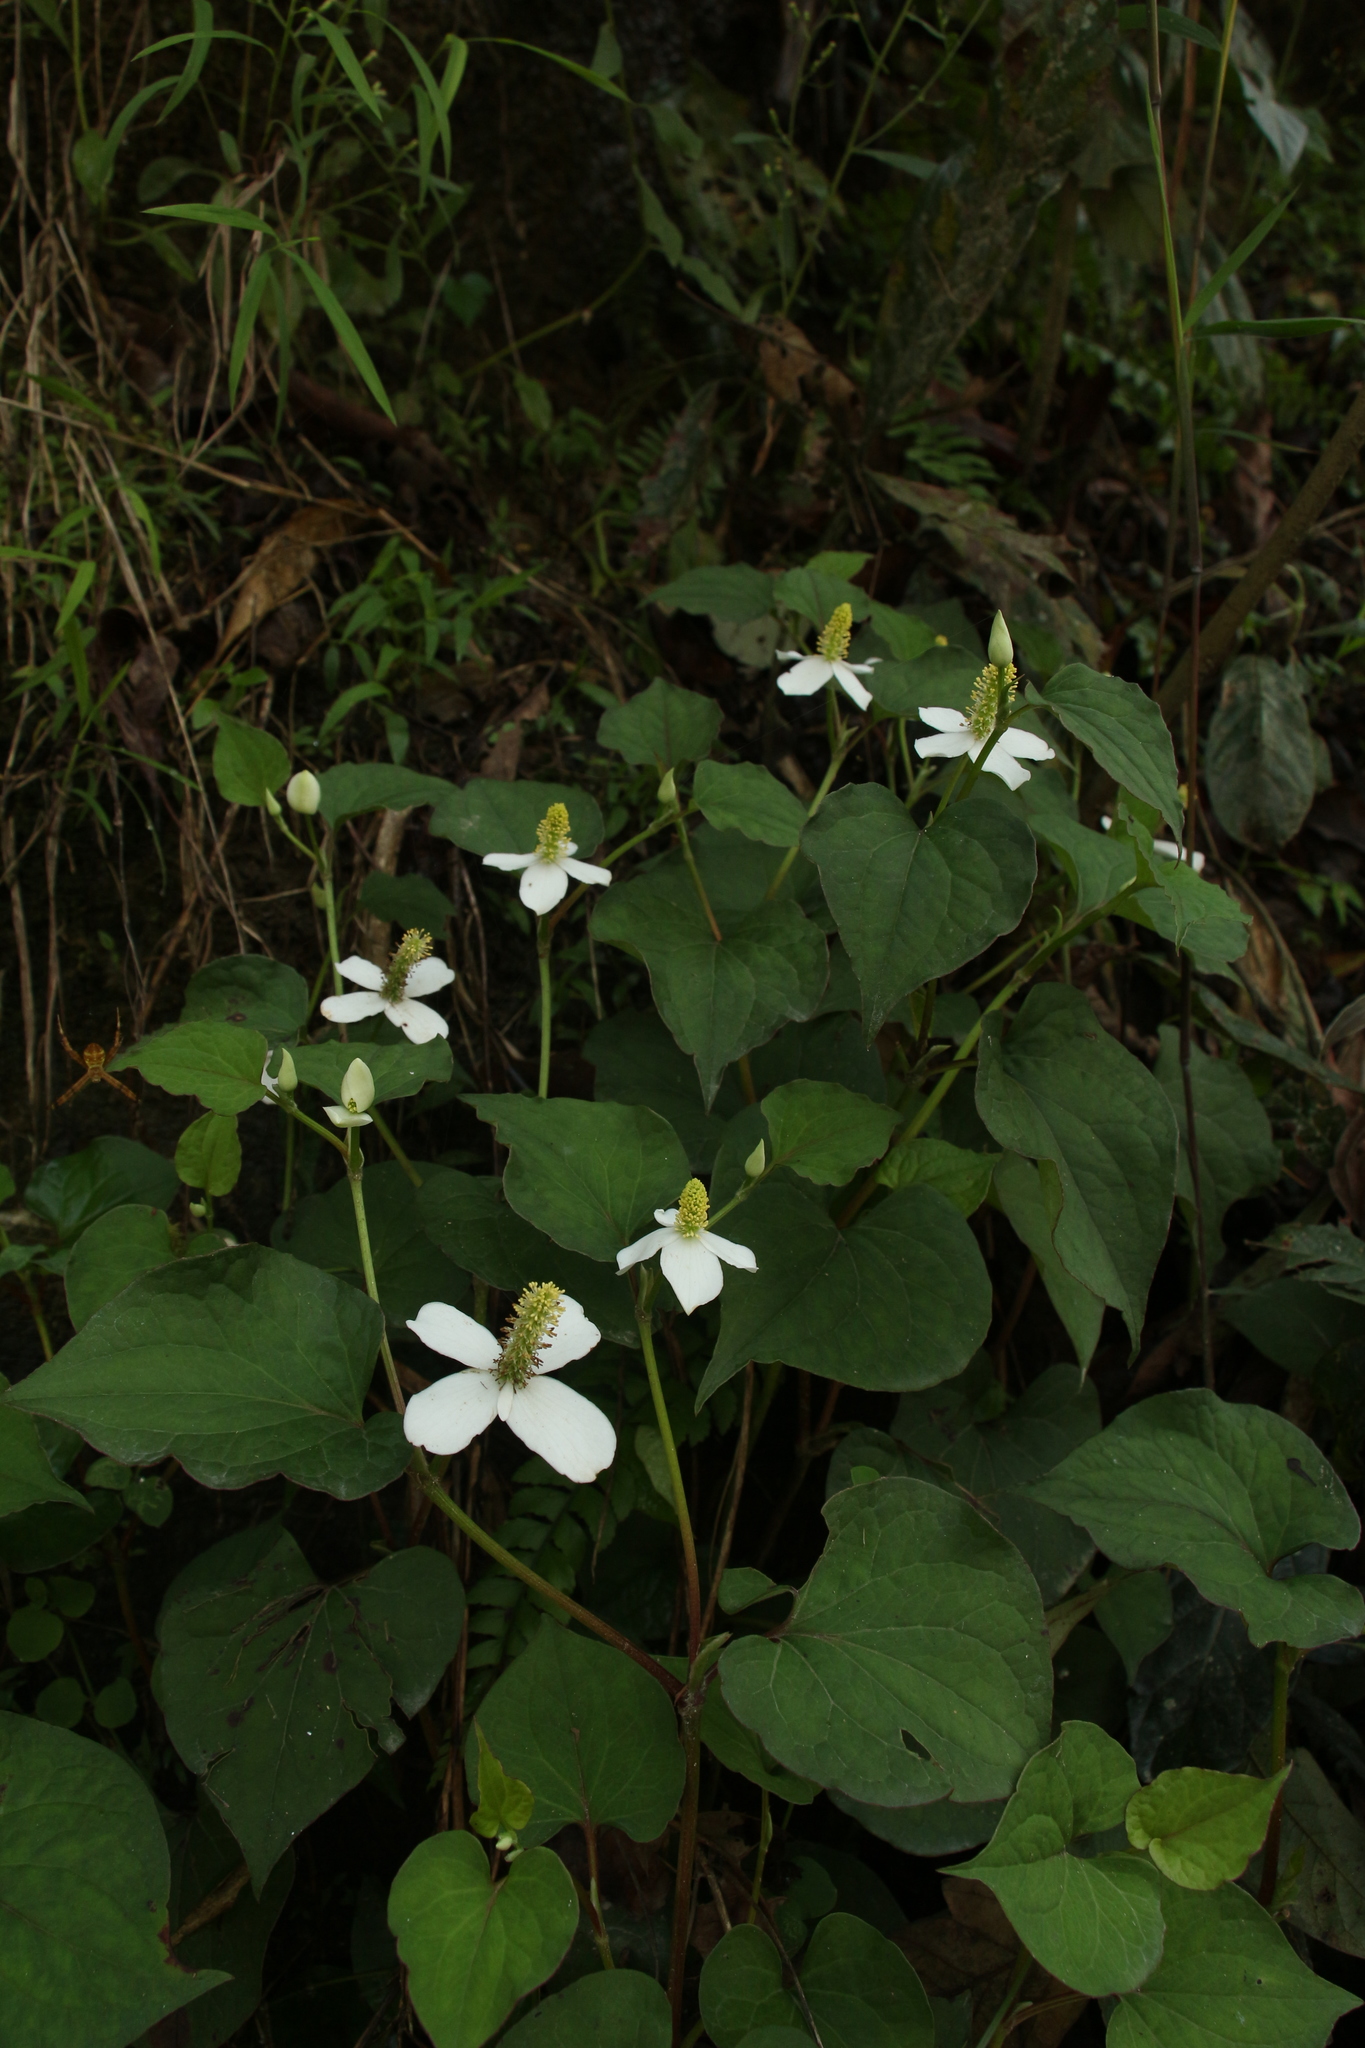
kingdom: Plantae
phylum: Tracheophyta
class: Magnoliopsida
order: Piperales
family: Saururaceae
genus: Houttuynia
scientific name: Houttuynia cordata
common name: Chameleon
